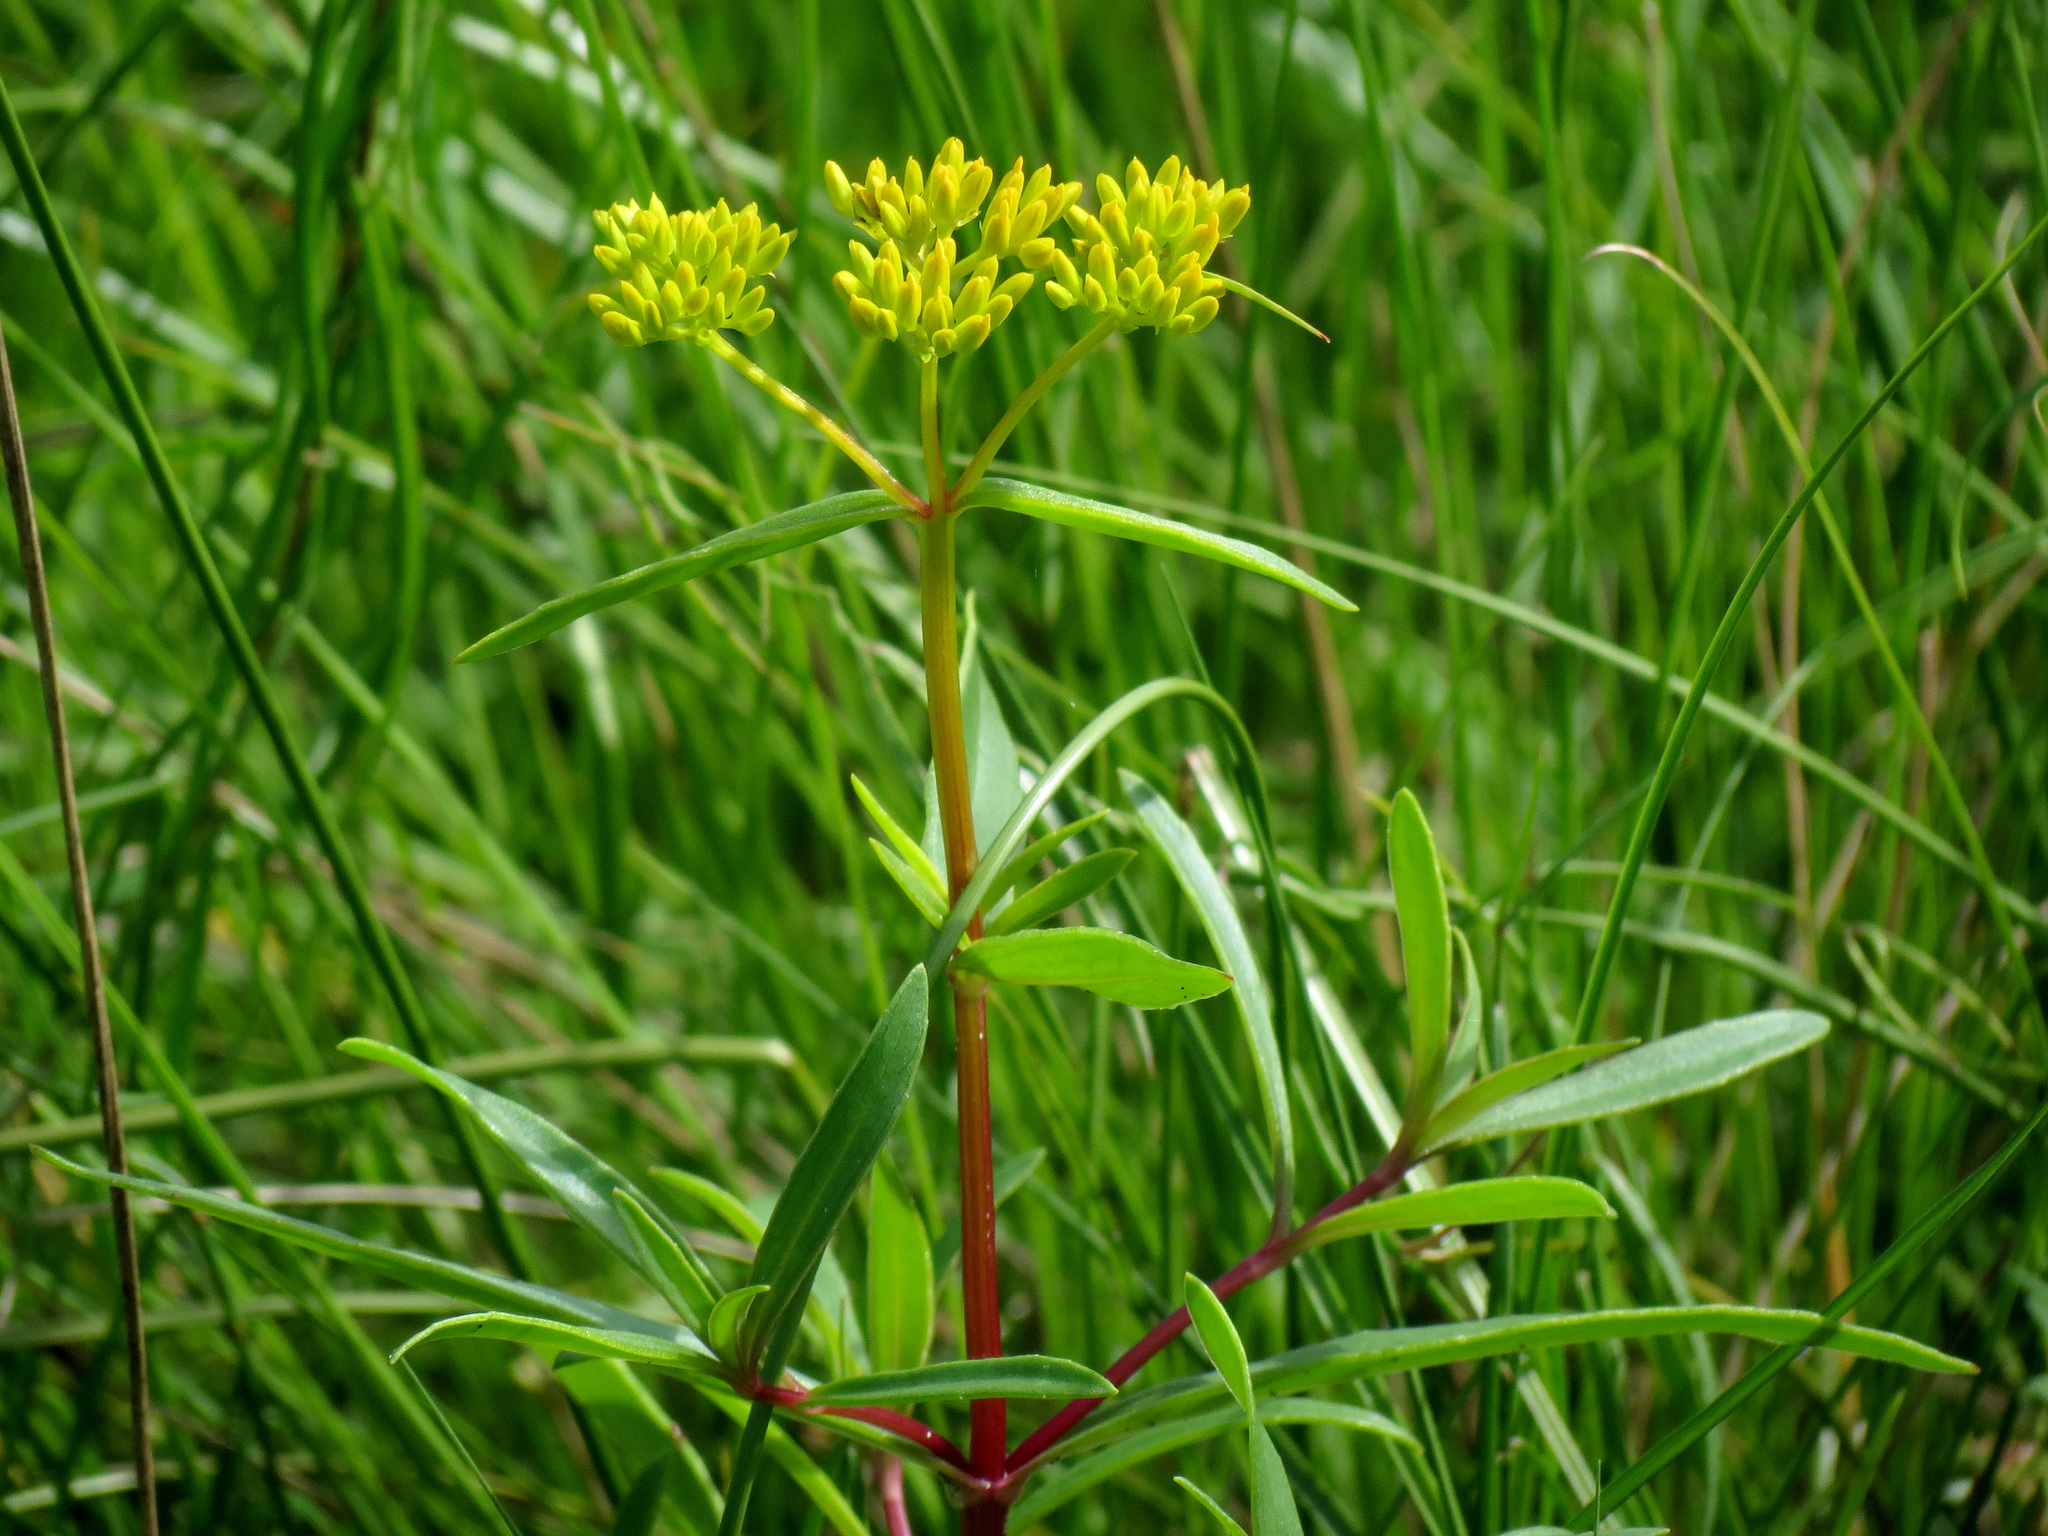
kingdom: Plantae
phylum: Tracheophyta
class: Magnoliopsida
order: Asterales
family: Asteraceae
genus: Flaveria
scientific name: Flaveria linearis
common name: Yellowtop
